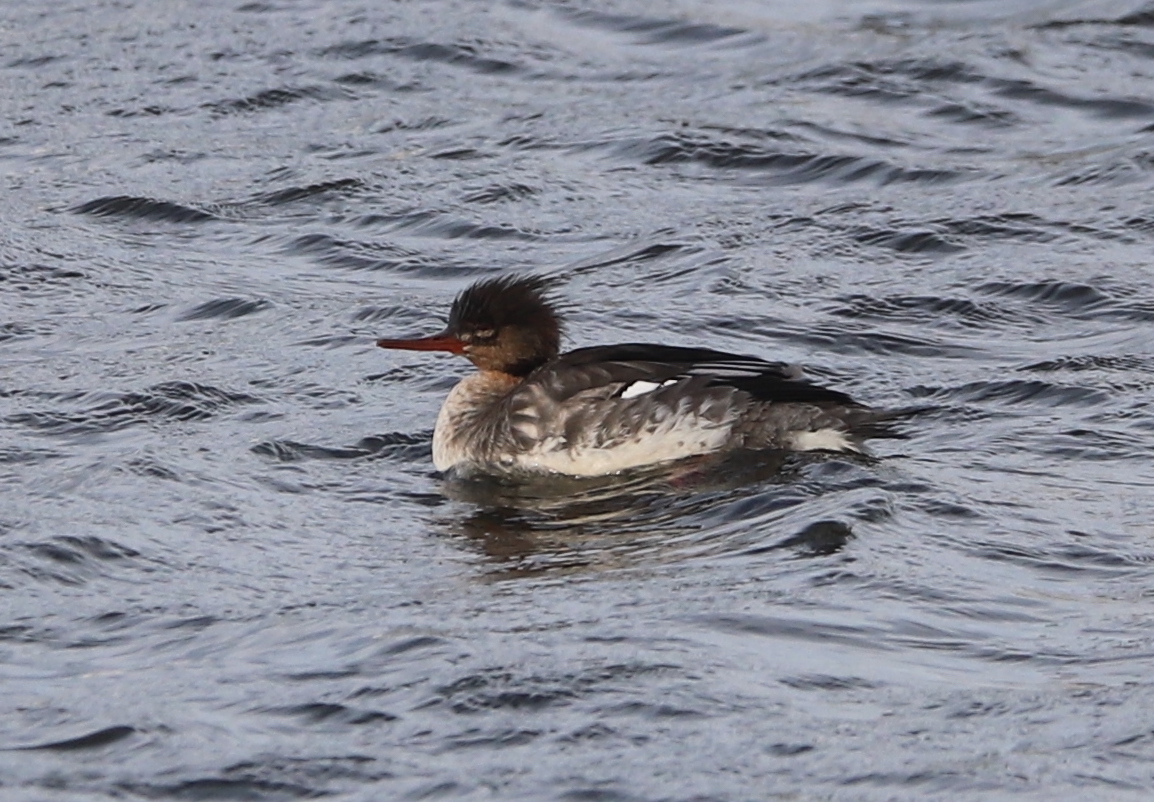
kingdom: Animalia
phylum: Chordata
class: Aves
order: Anseriformes
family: Anatidae
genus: Mergus
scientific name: Mergus serrator
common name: Red-breasted merganser
